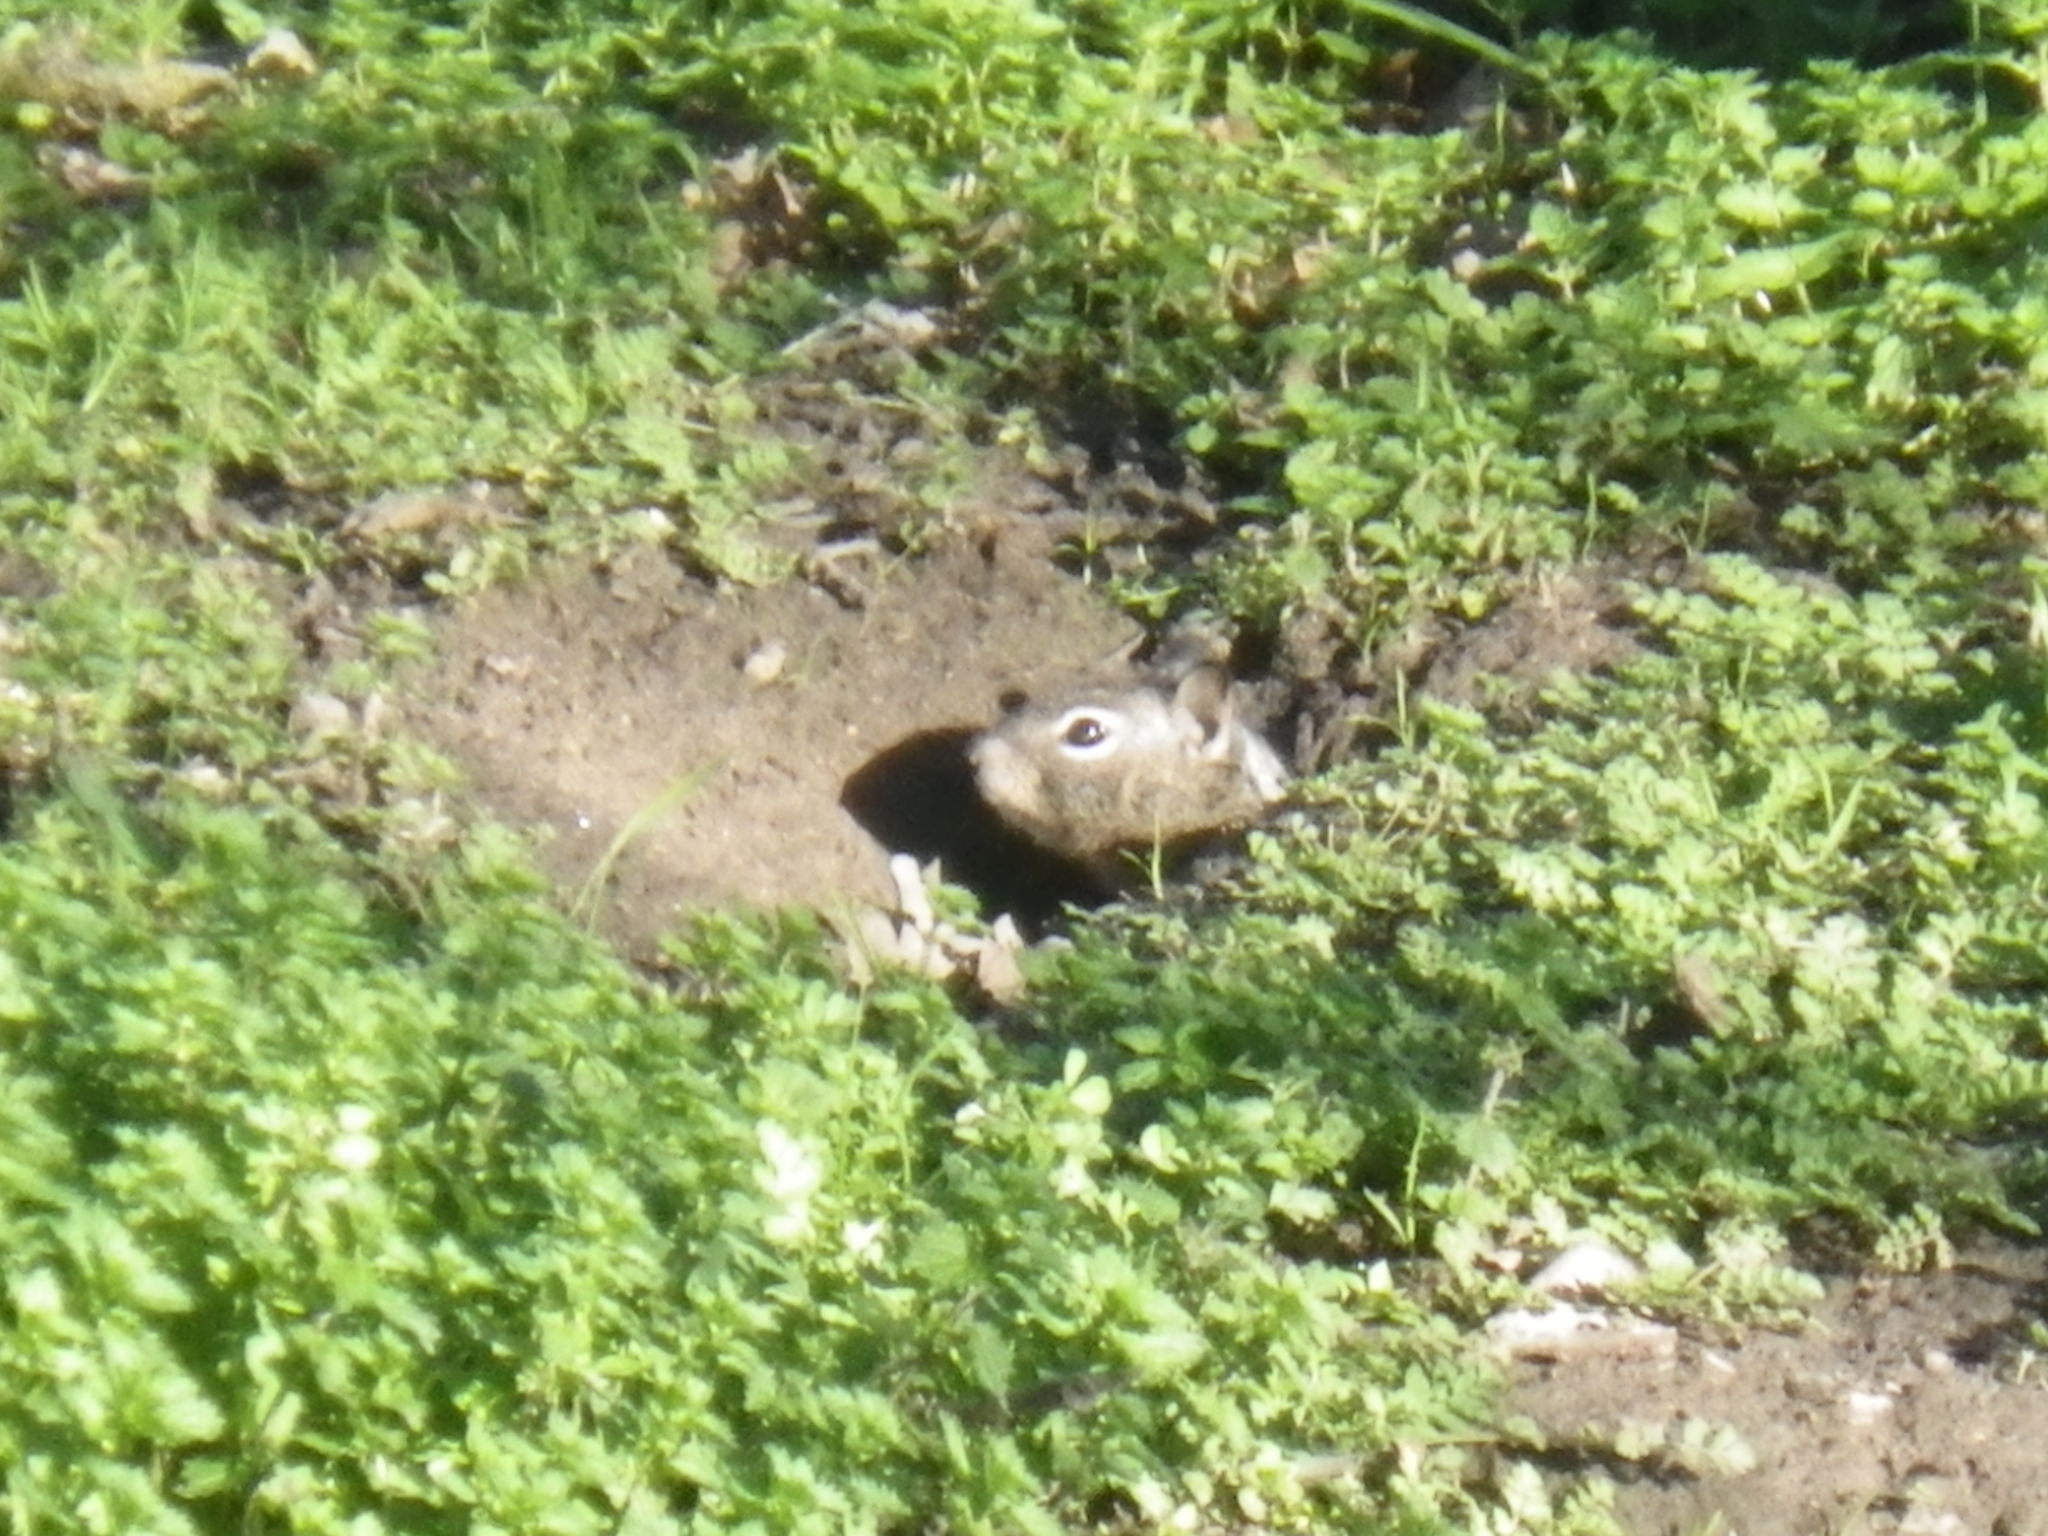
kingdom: Animalia
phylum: Chordata
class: Mammalia
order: Rodentia
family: Sciuridae
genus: Otospermophilus
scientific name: Otospermophilus beecheyi
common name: California ground squirrel
